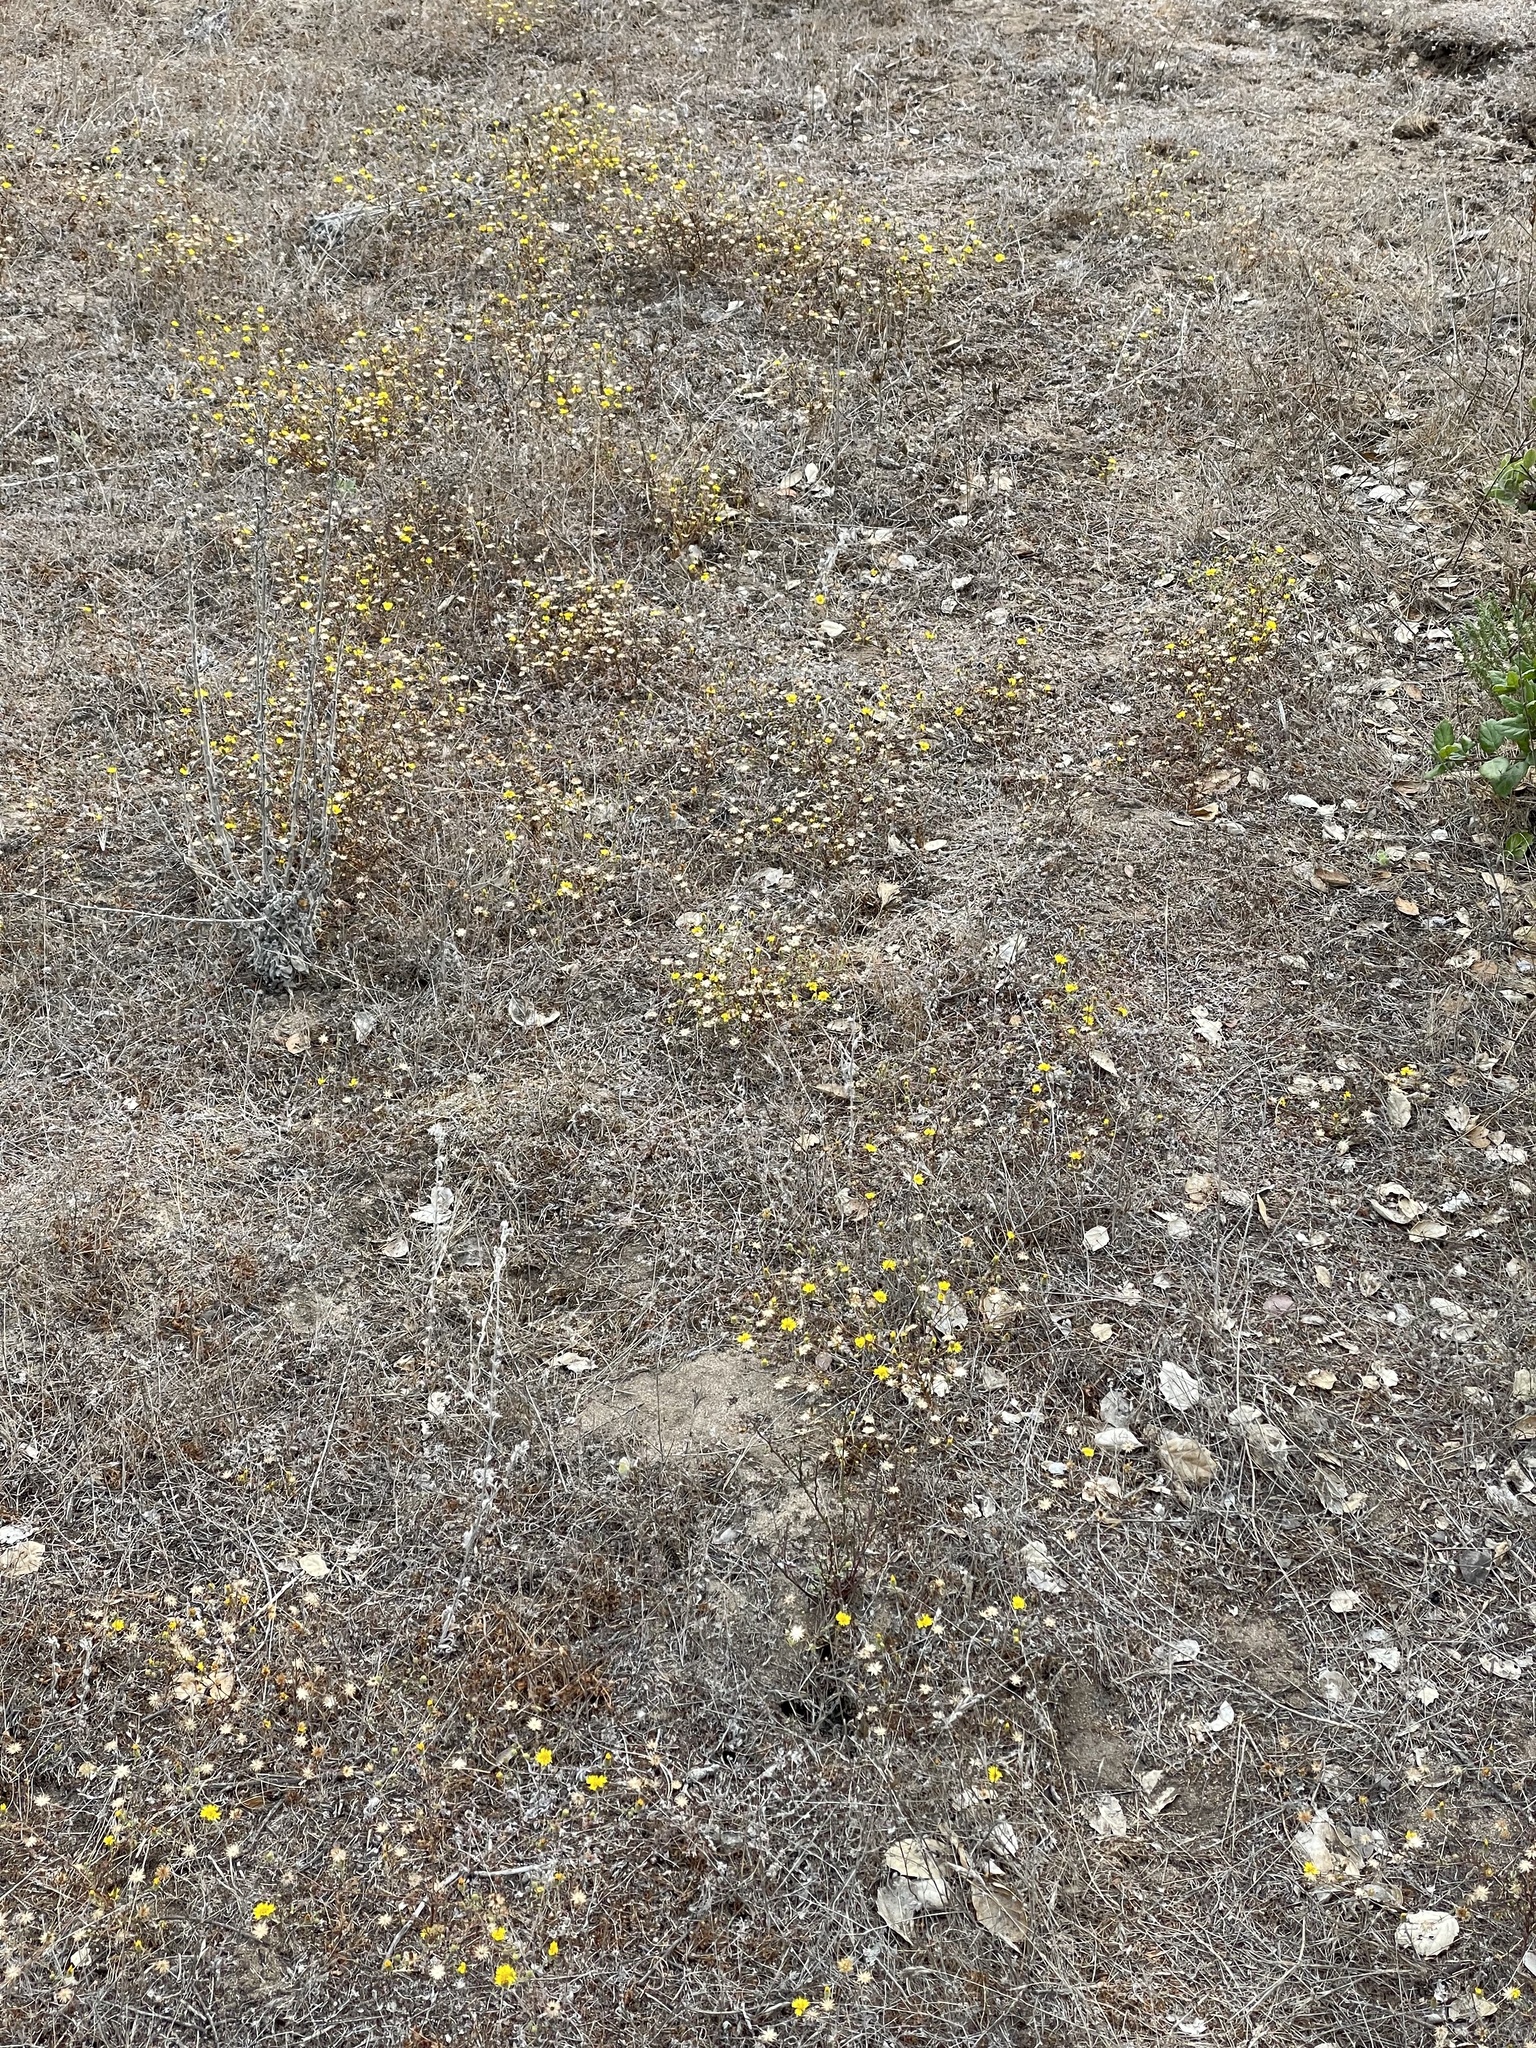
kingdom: Plantae
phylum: Tracheophyta
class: Magnoliopsida
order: Asterales
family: Asteraceae
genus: Lessingia
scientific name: Lessingia pectinata
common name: Valley lessingia
